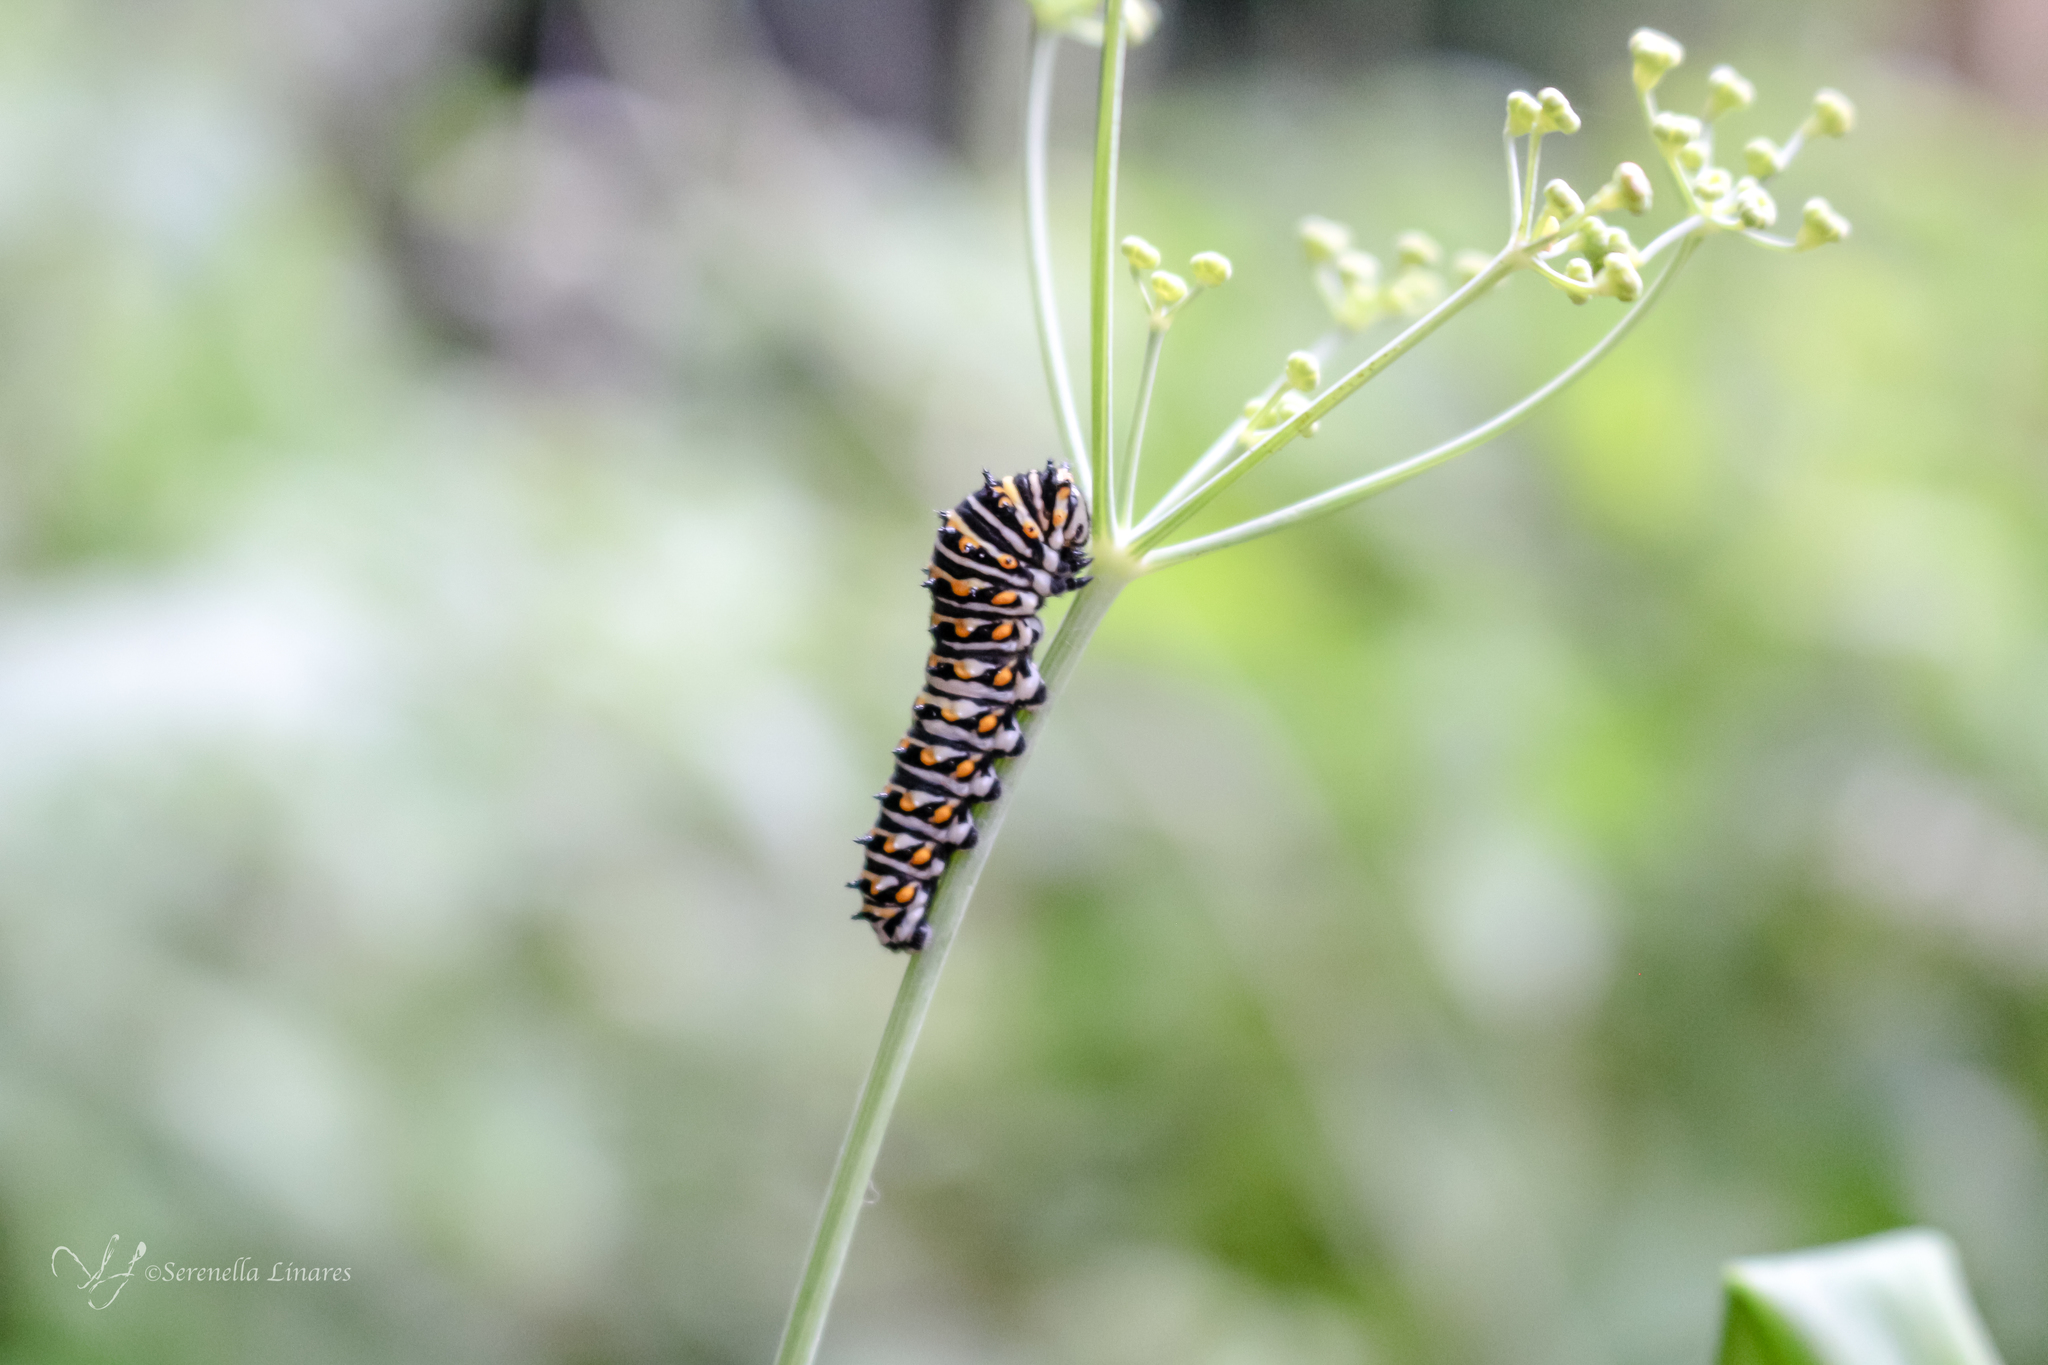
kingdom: Animalia
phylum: Arthropoda
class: Insecta
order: Lepidoptera
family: Papilionidae
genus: Papilio
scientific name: Papilio polyxenes
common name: Black swallowtail
